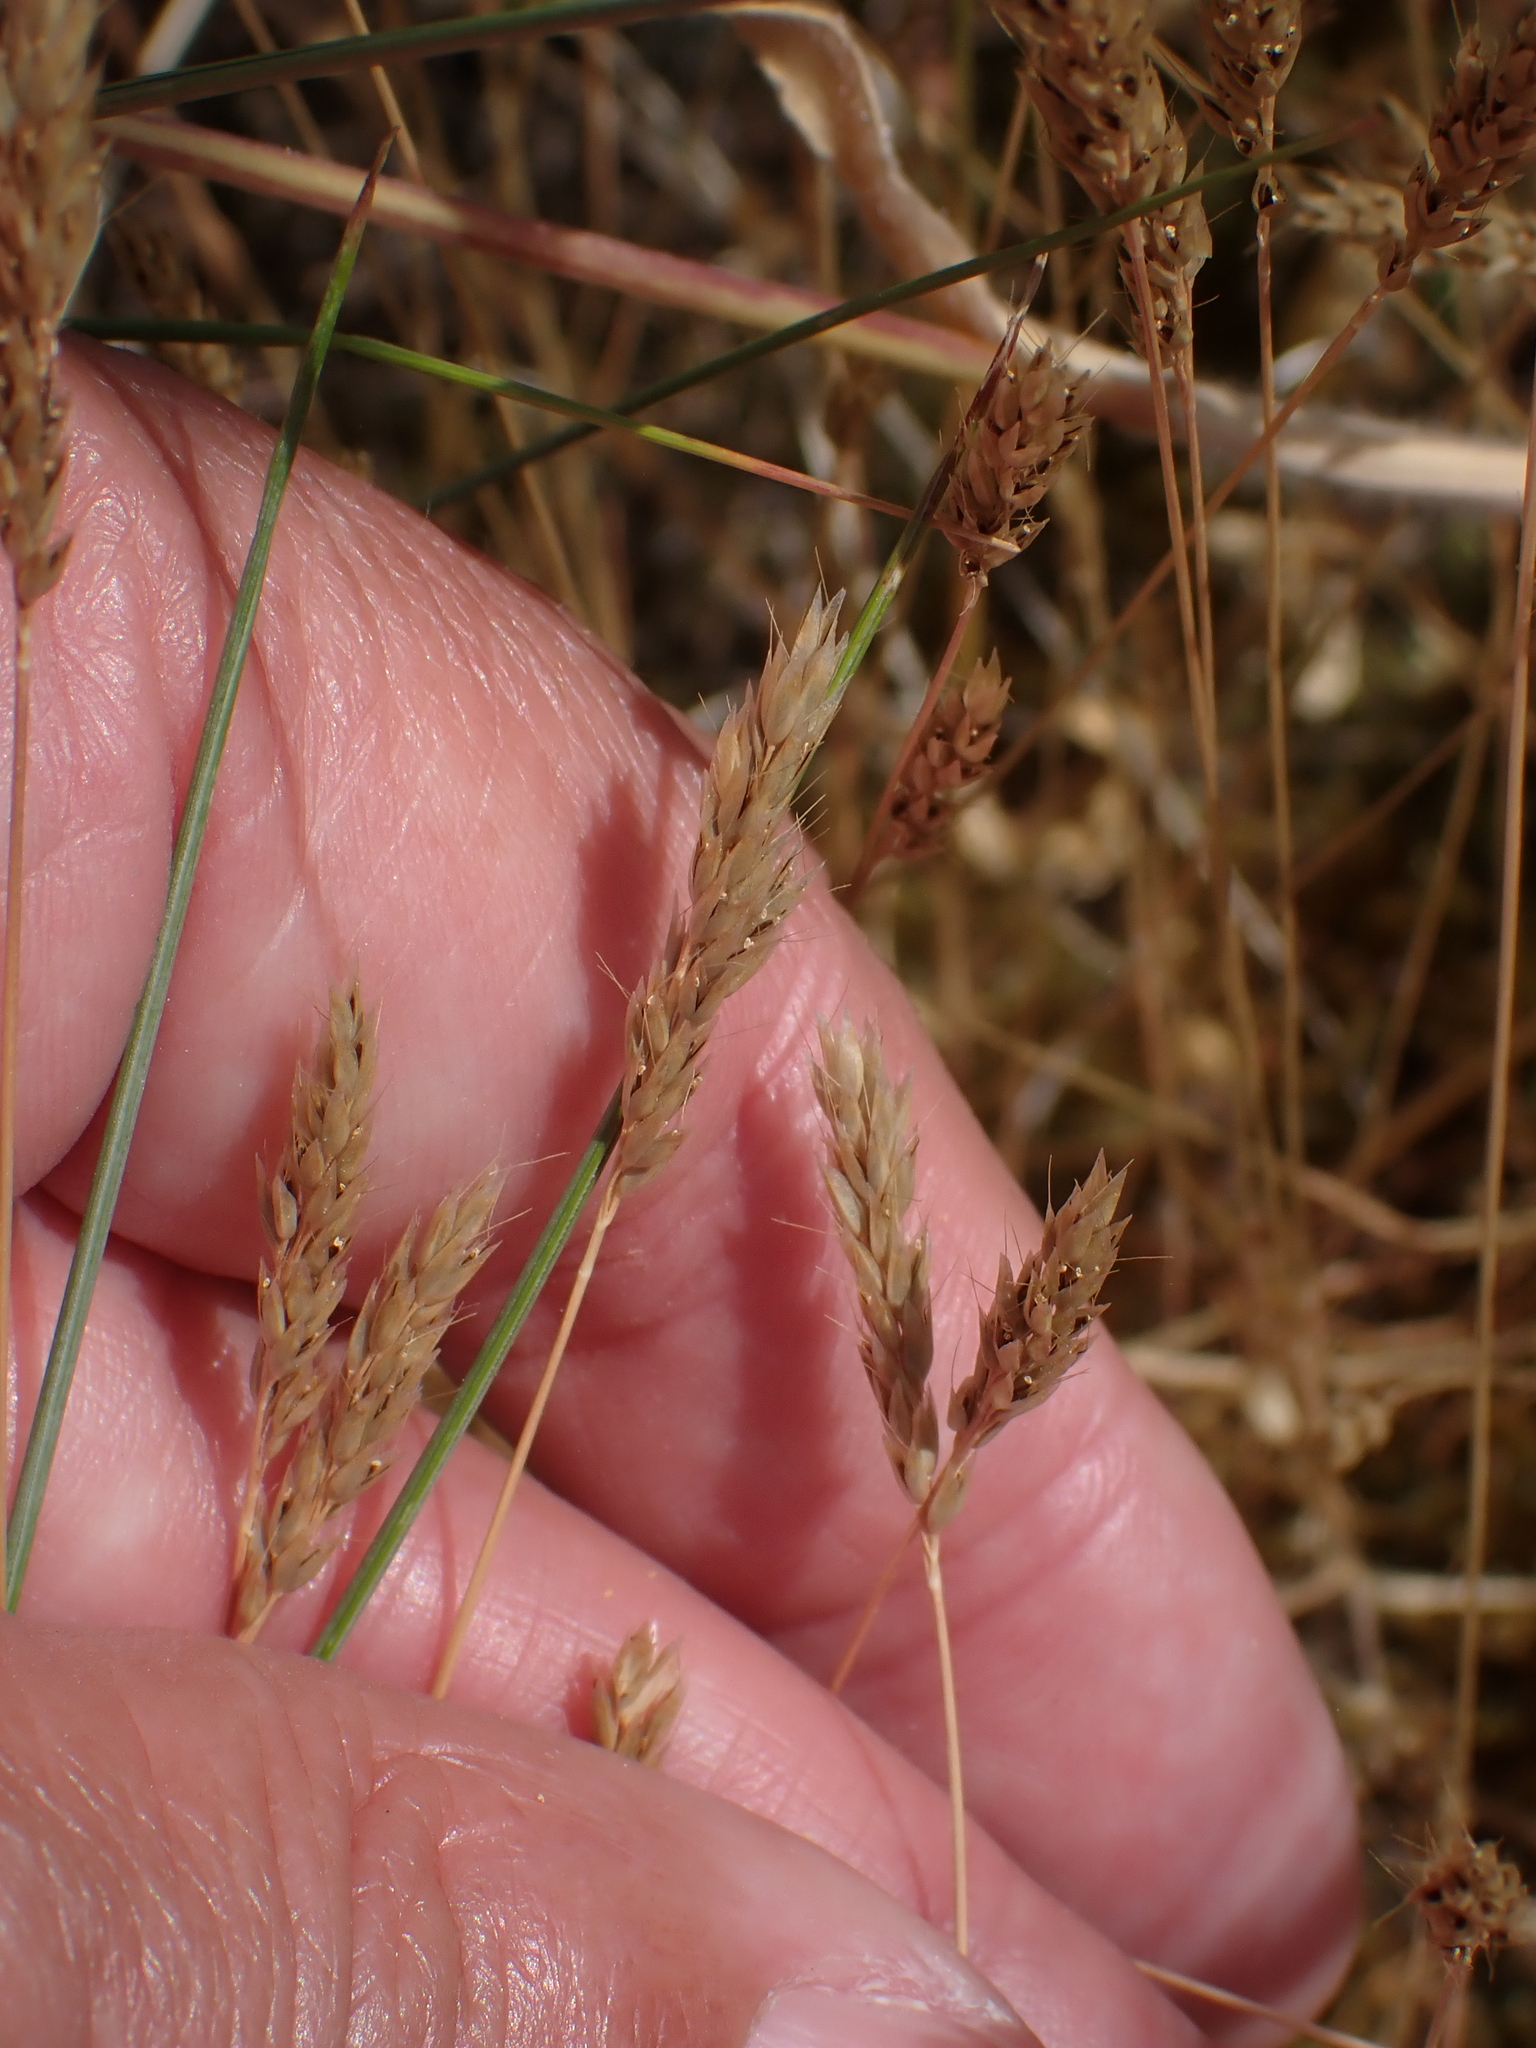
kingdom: Plantae
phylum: Tracheophyta
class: Liliopsida
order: Poales
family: Poaceae
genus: Aira
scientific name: Aira praecox
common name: Early hair-grass
